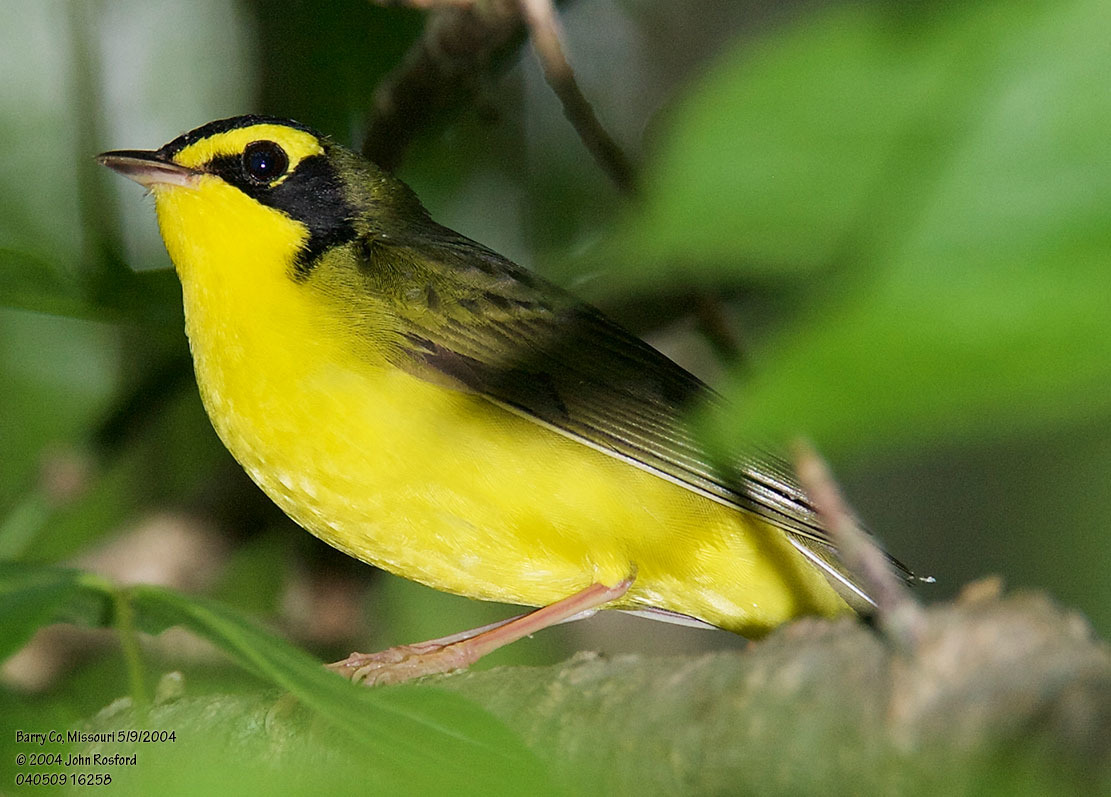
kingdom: Animalia
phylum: Chordata
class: Aves
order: Passeriformes
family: Parulidae
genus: Geothlypis
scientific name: Geothlypis formosa
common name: Kentucky warbler
